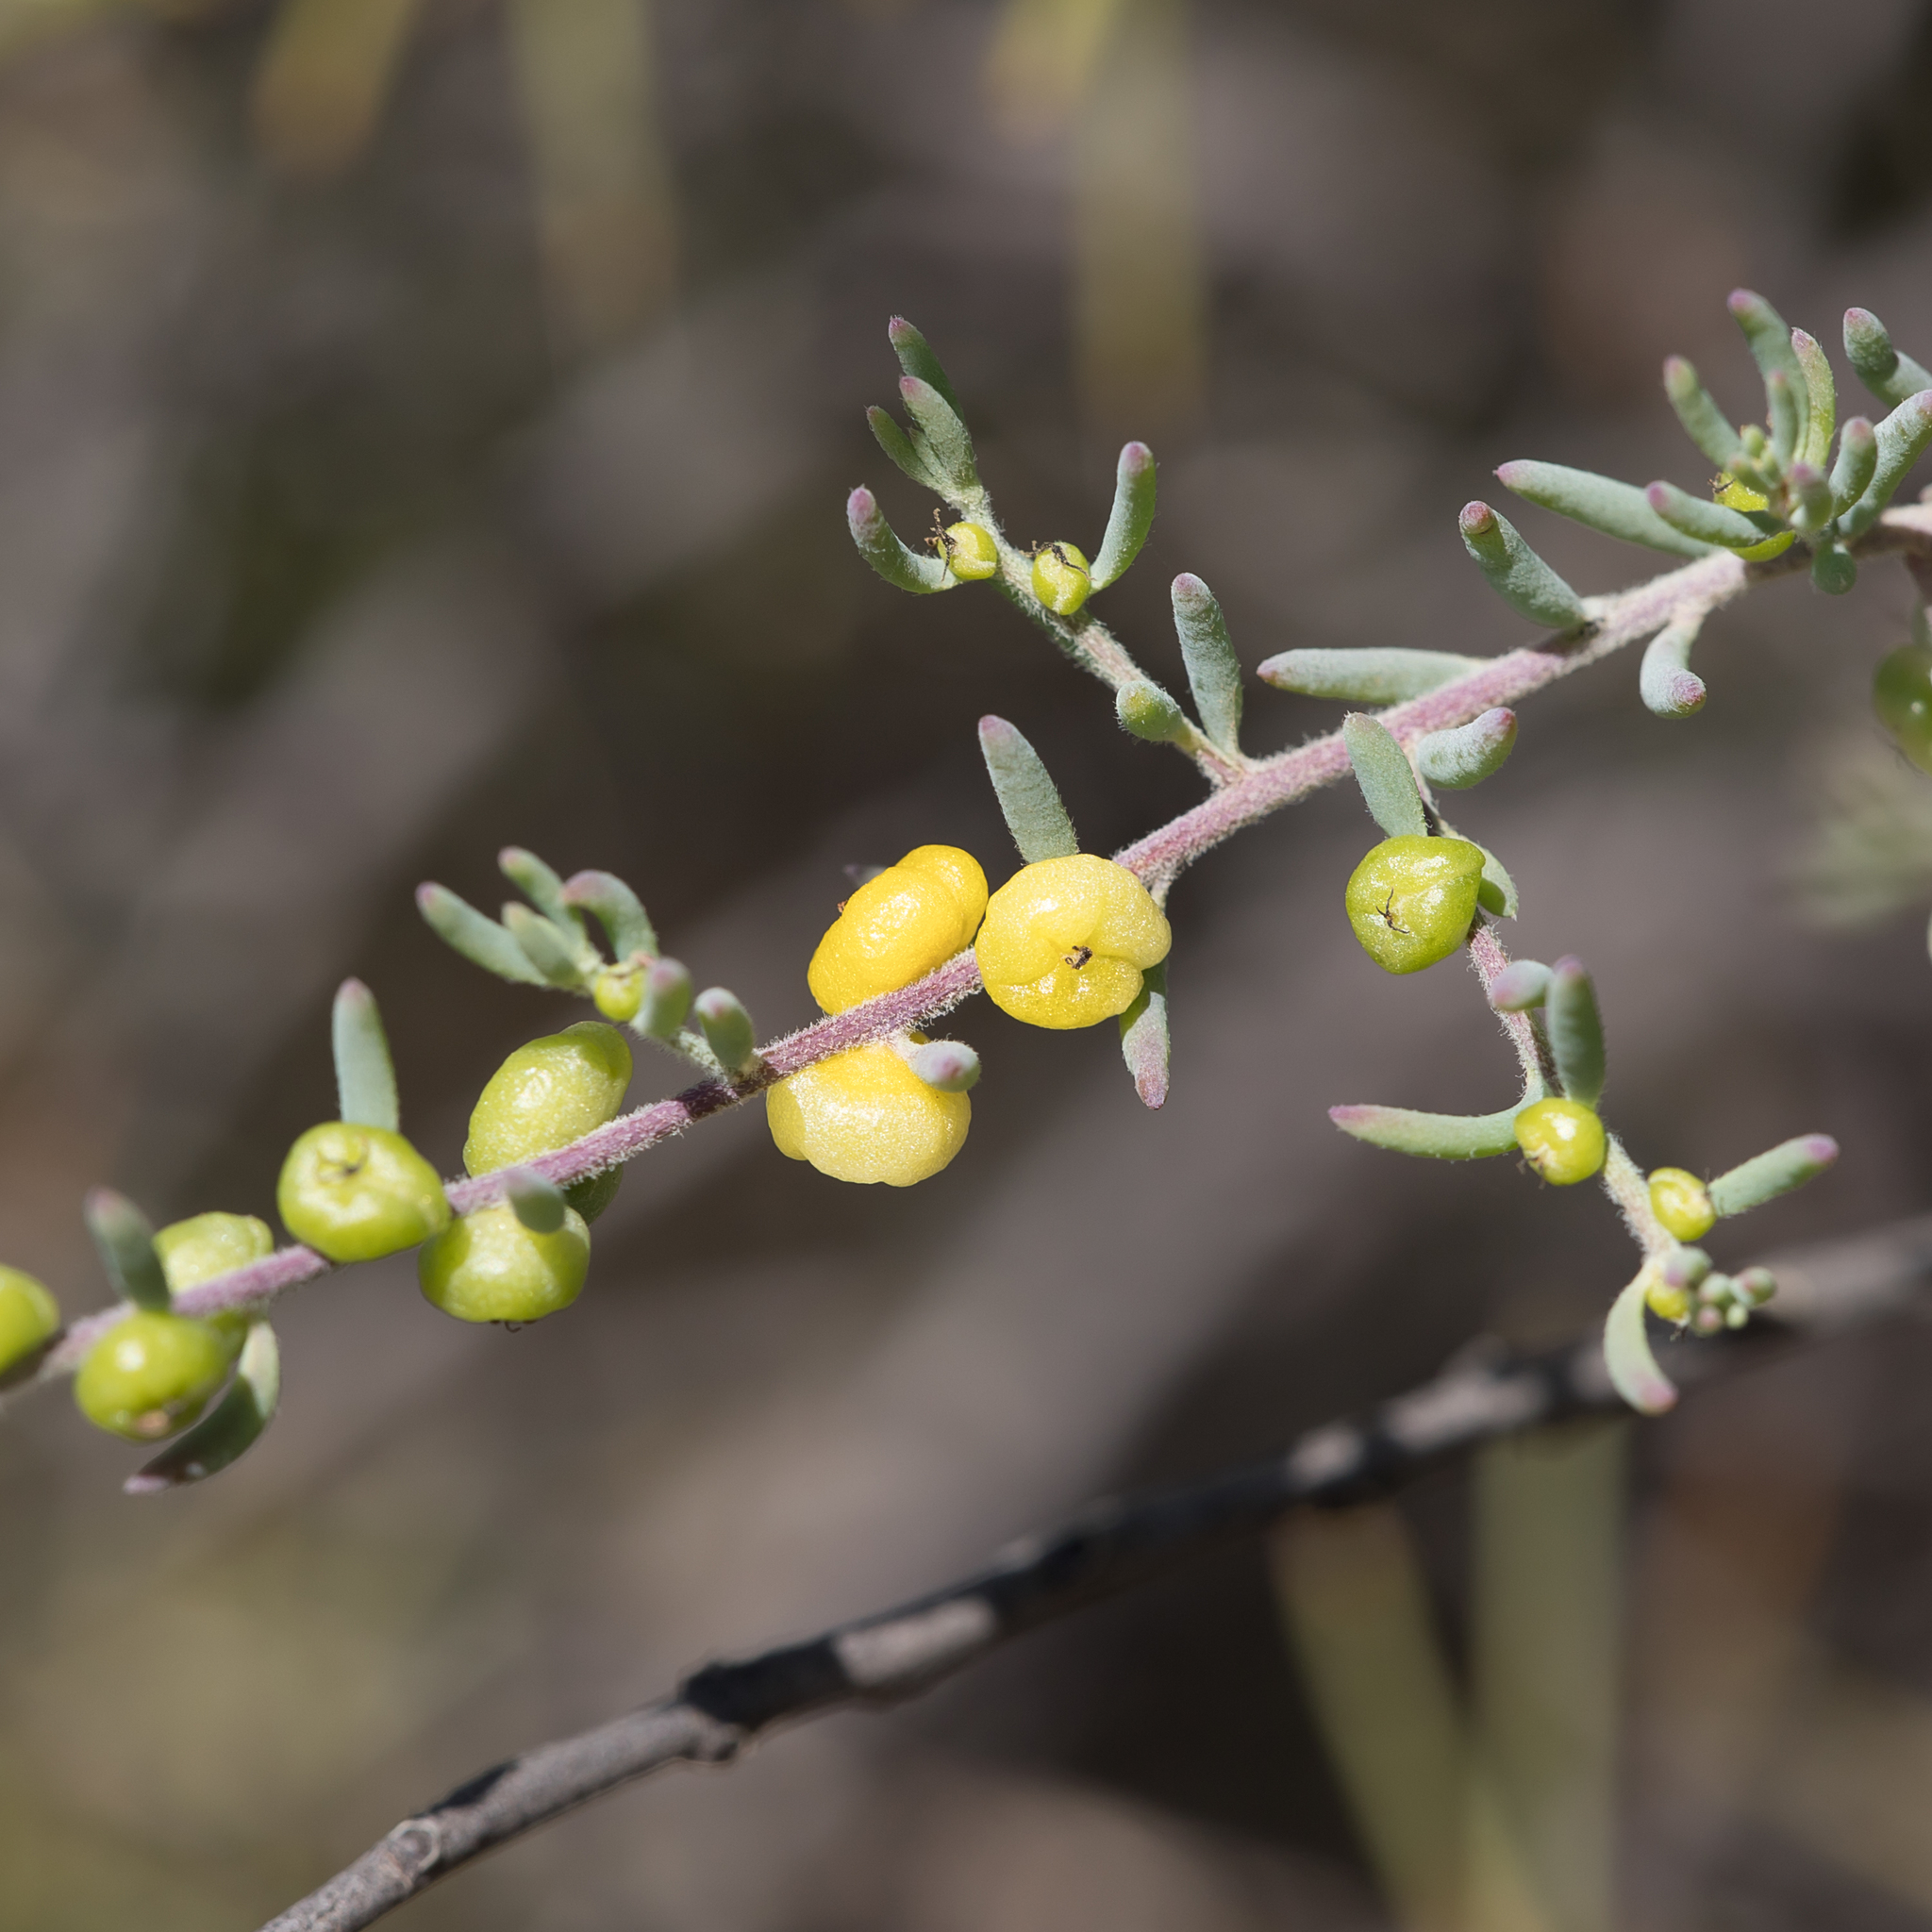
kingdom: Plantae
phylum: Tracheophyta
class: Magnoliopsida
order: Caryophyllales
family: Amaranthaceae
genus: Enchylaena
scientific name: Enchylaena tomentosa
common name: Ruby saltbush
